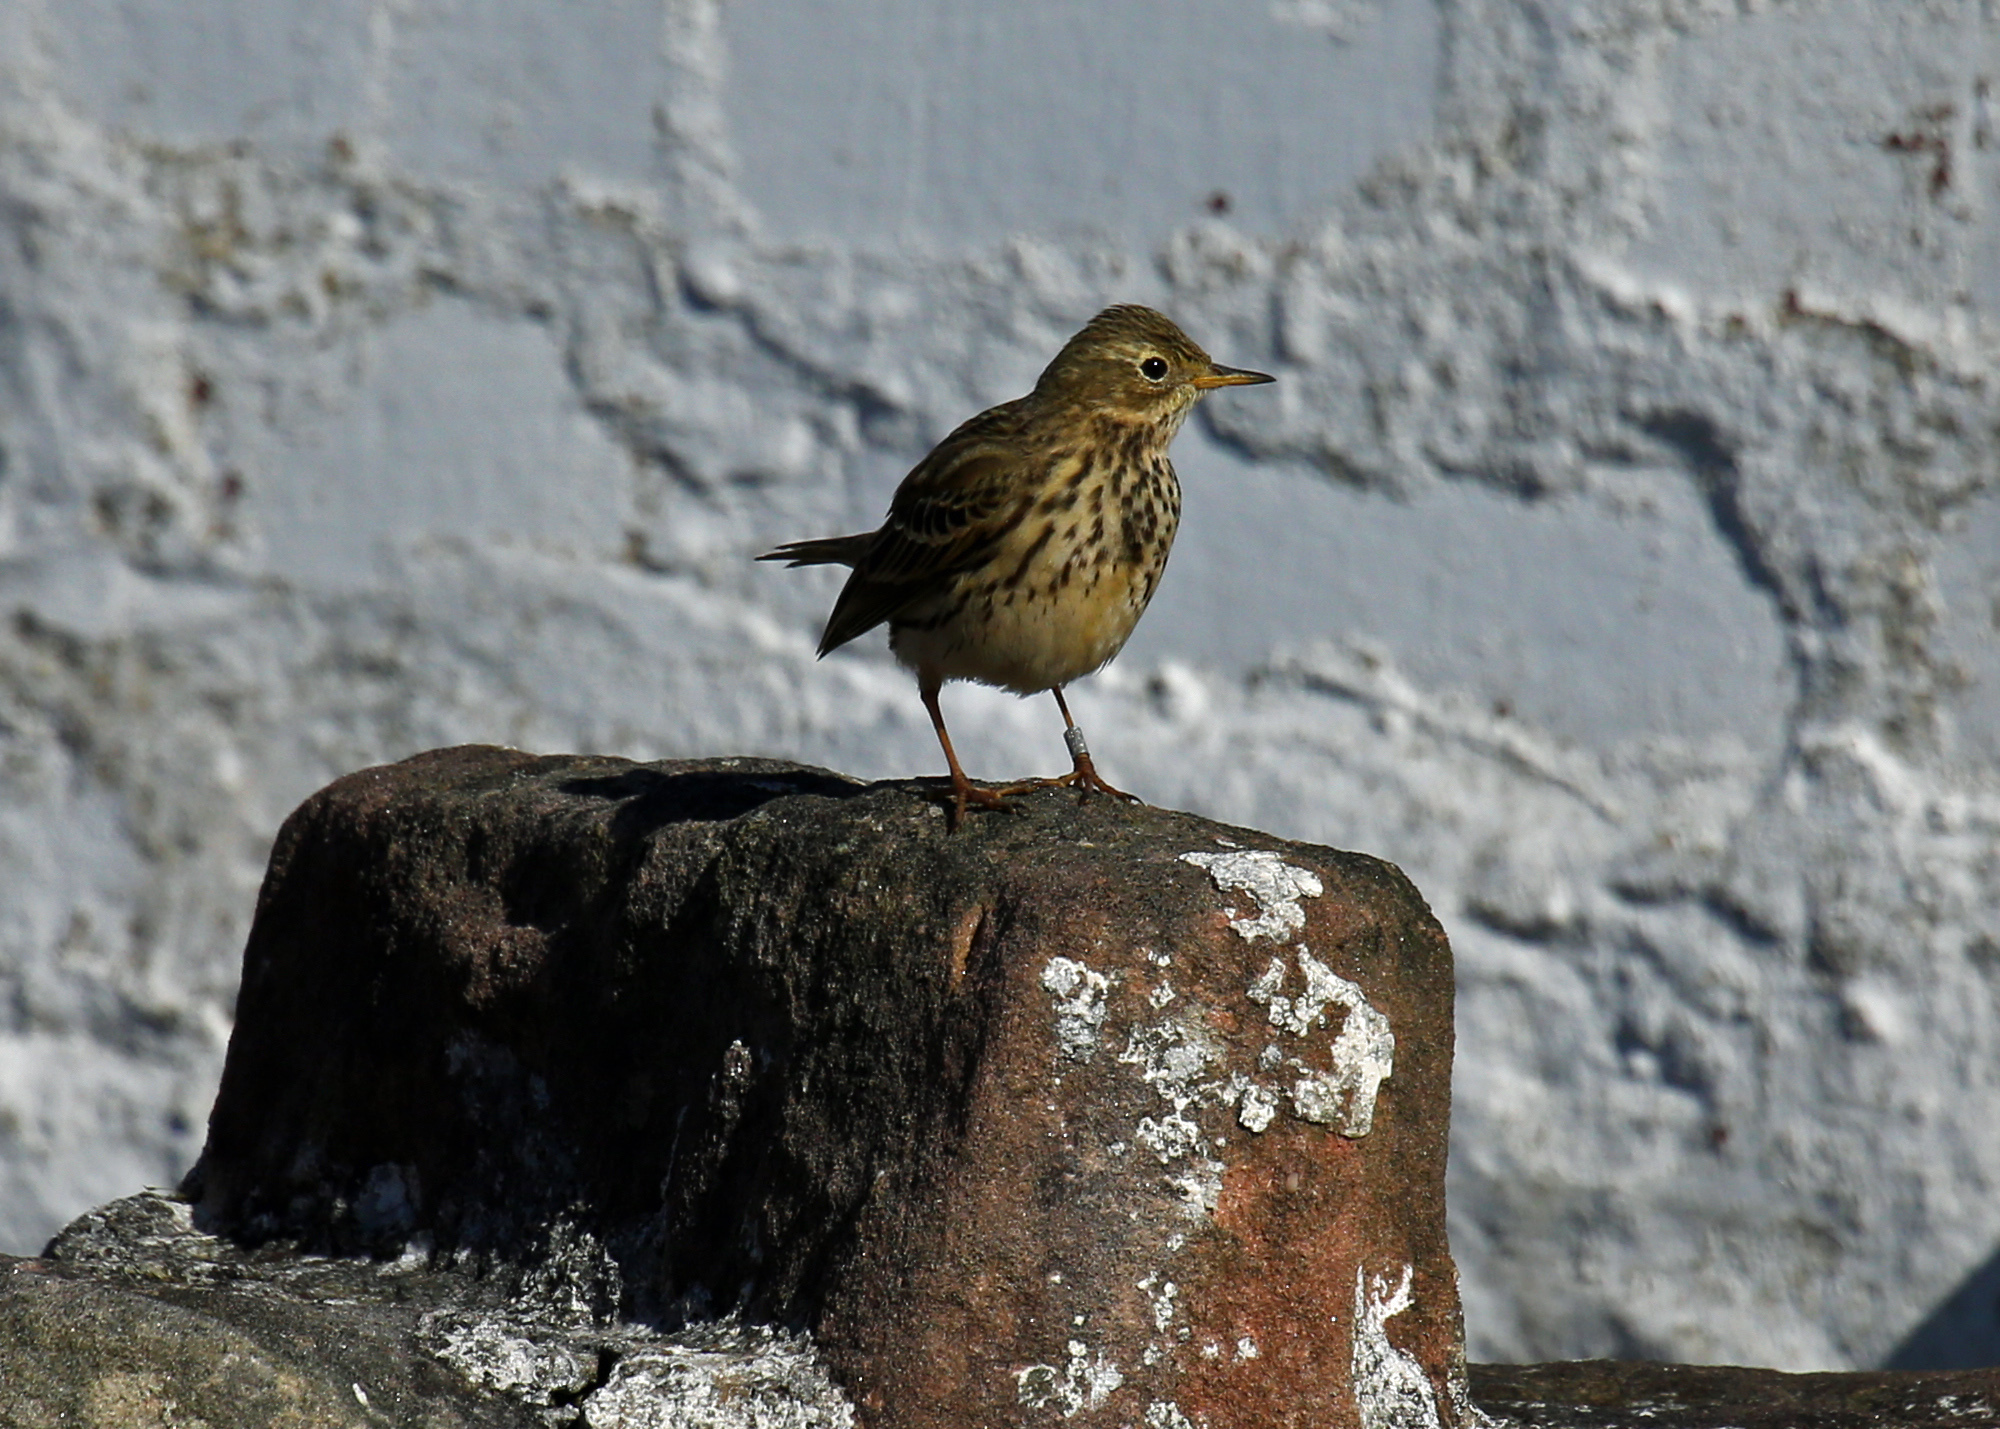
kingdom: Animalia
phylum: Chordata
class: Aves
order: Passeriformes
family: Motacillidae
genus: Anthus
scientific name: Anthus pratensis
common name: Meadow pipit
